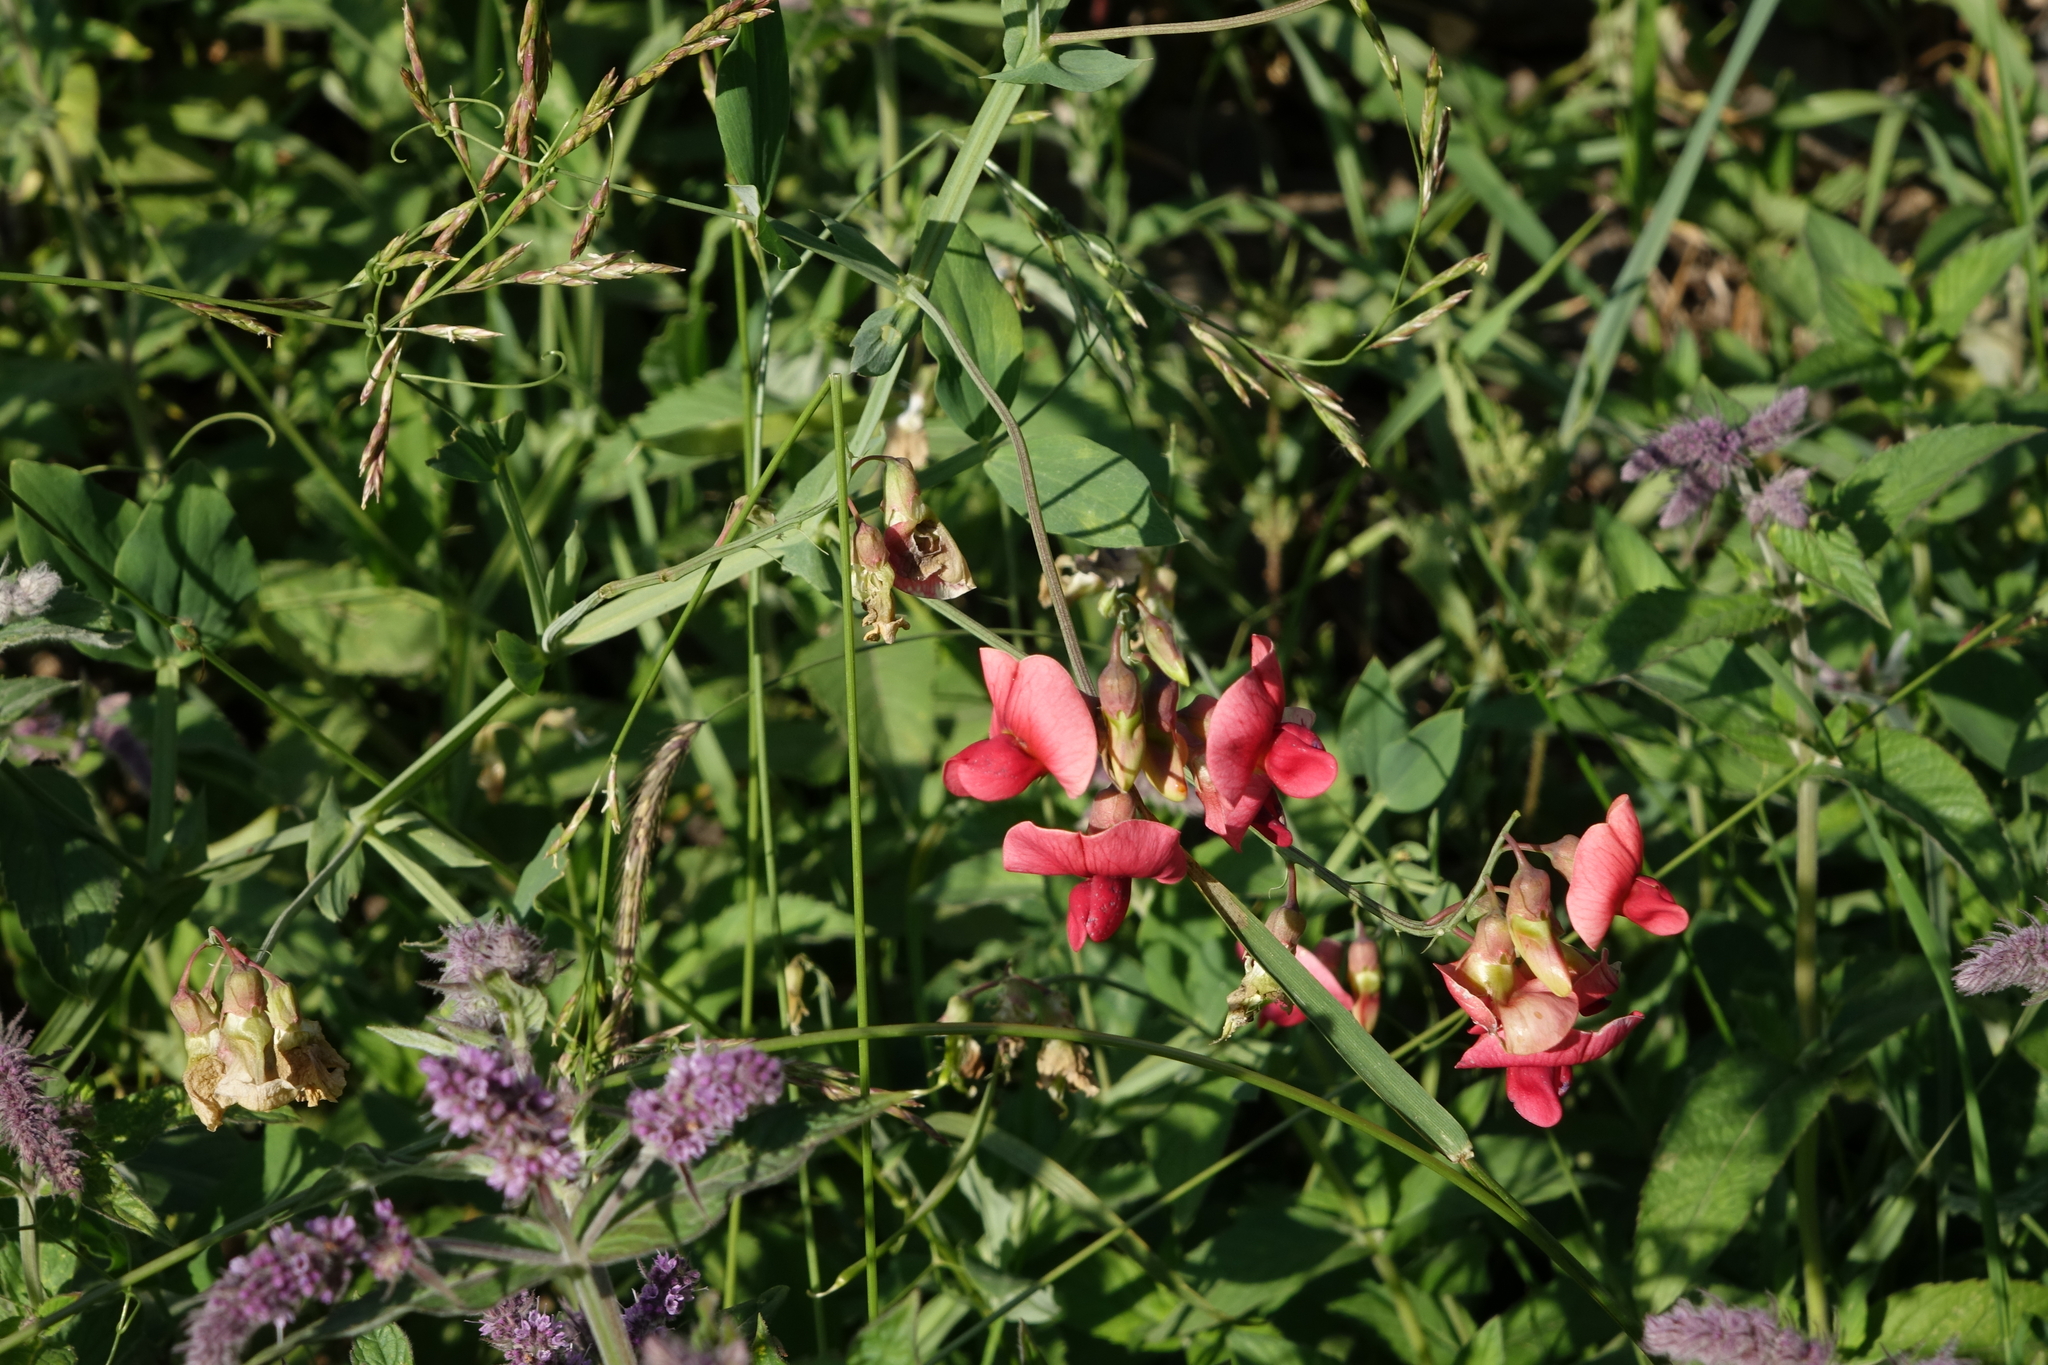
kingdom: Plantae
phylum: Tracheophyta
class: Magnoliopsida
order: Lamiales
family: Lamiaceae
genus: Mentha
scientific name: Mentha longifolia
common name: Horse mint
